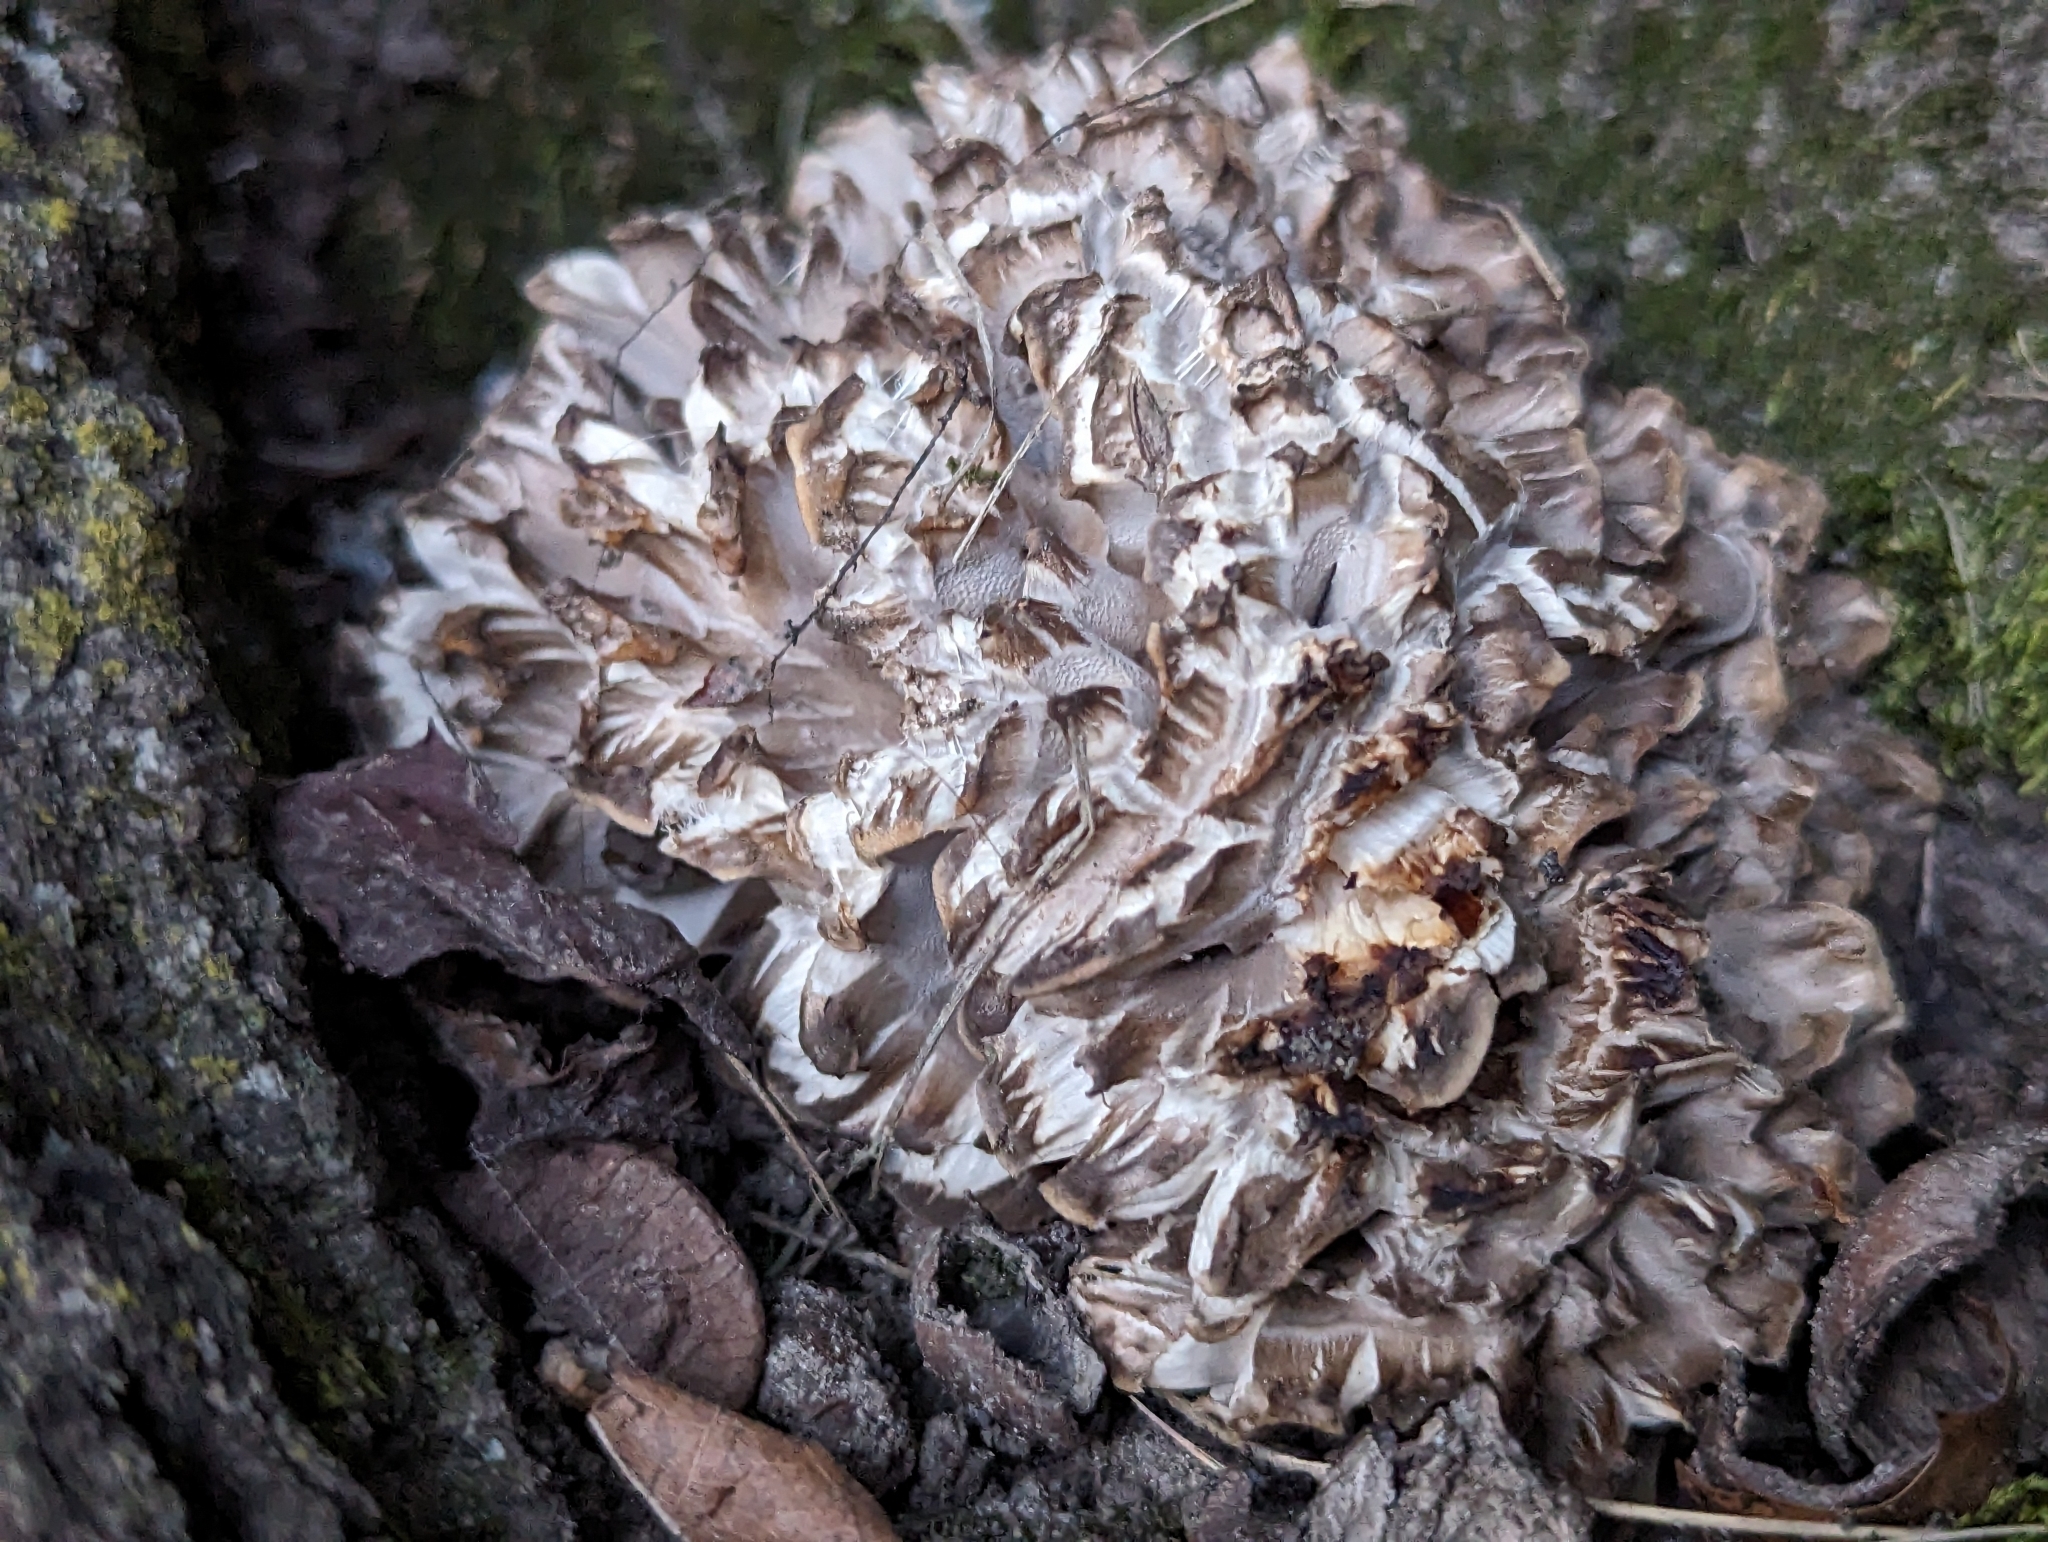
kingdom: Fungi
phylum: Basidiomycota
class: Agaricomycetes
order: Polyporales
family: Grifolaceae
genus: Grifola
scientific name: Grifola frondosa
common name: Hen of the woods
